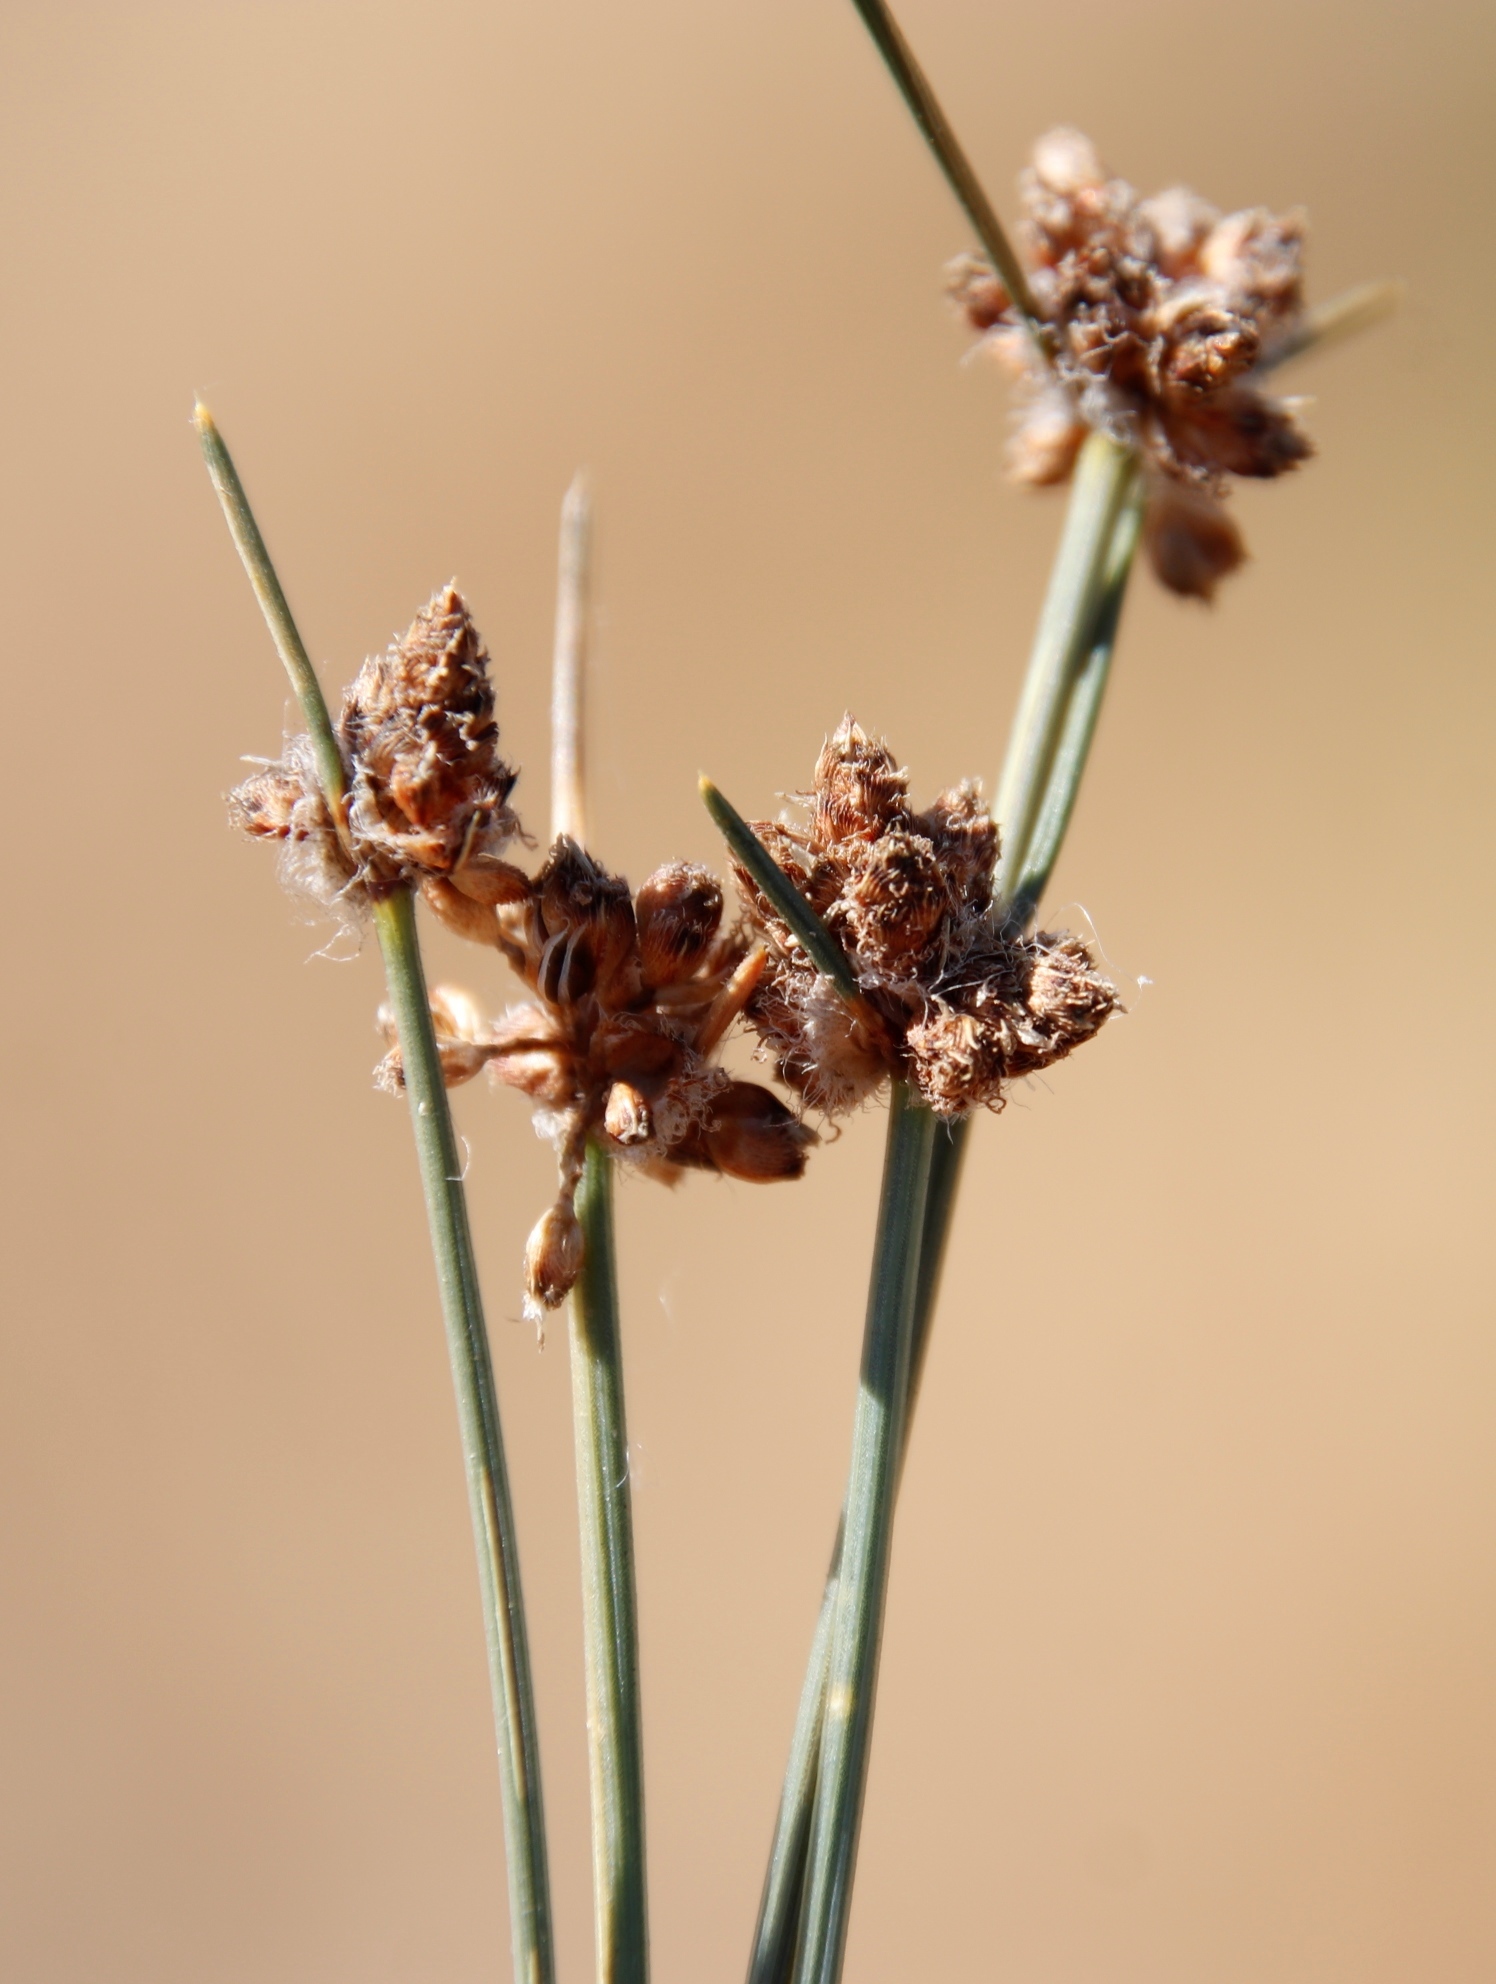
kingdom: Plantae
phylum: Tracheophyta
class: Liliopsida
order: Poales
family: Cyperaceae
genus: Ficinia
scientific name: Ficinia paradoxa
